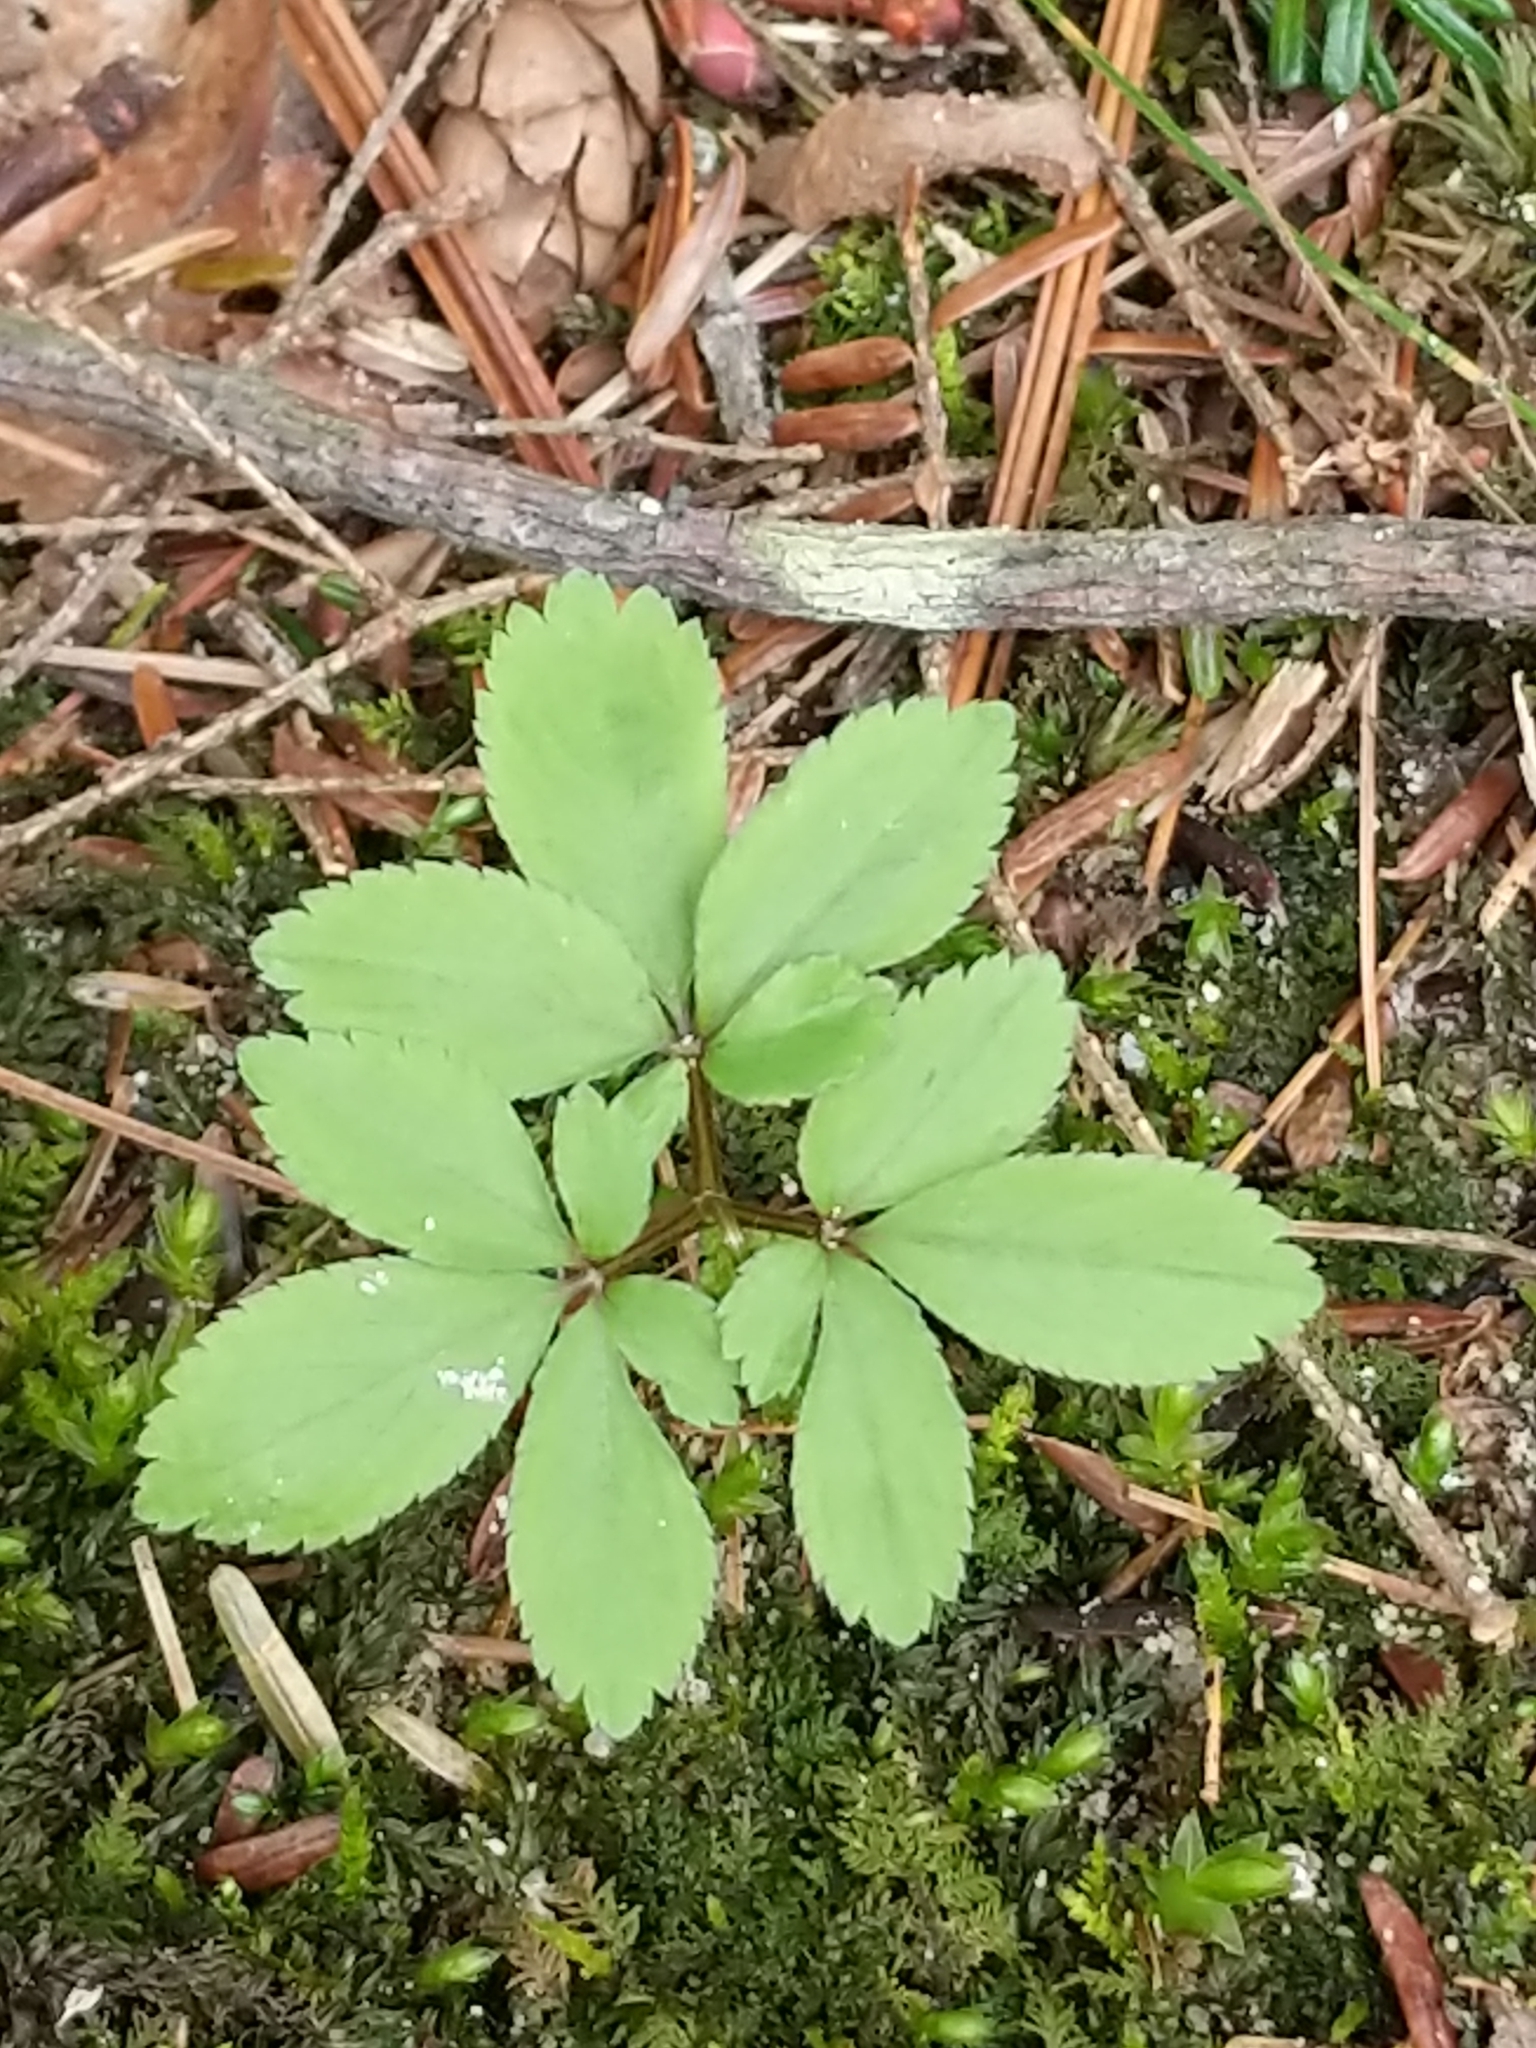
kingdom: Plantae
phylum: Tracheophyta
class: Magnoliopsida
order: Apiales
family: Araliaceae
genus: Panax
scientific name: Panax trifolius
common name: Dwarf ginseng
